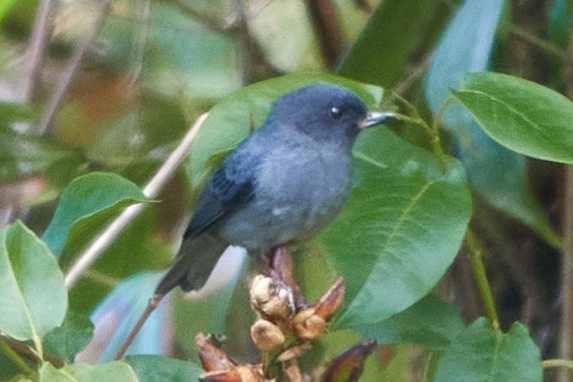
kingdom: Animalia
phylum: Chordata
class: Aves
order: Passeriformes
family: Thraupidae
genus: Diglossa
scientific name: Diglossa plumbea
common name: Slaty flowerpiercer
